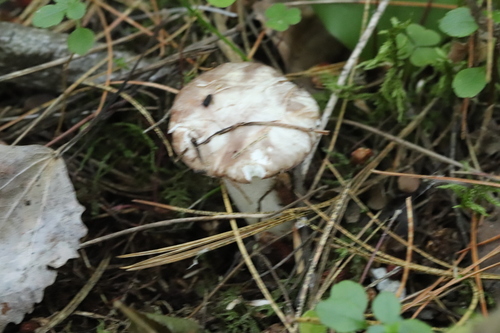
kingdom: Fungi
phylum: Basidiomycota
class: Agaricomycetes
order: Boletales
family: Suillaceae
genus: Suillus
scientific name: Suillus placidus
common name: Slippery white bolete
